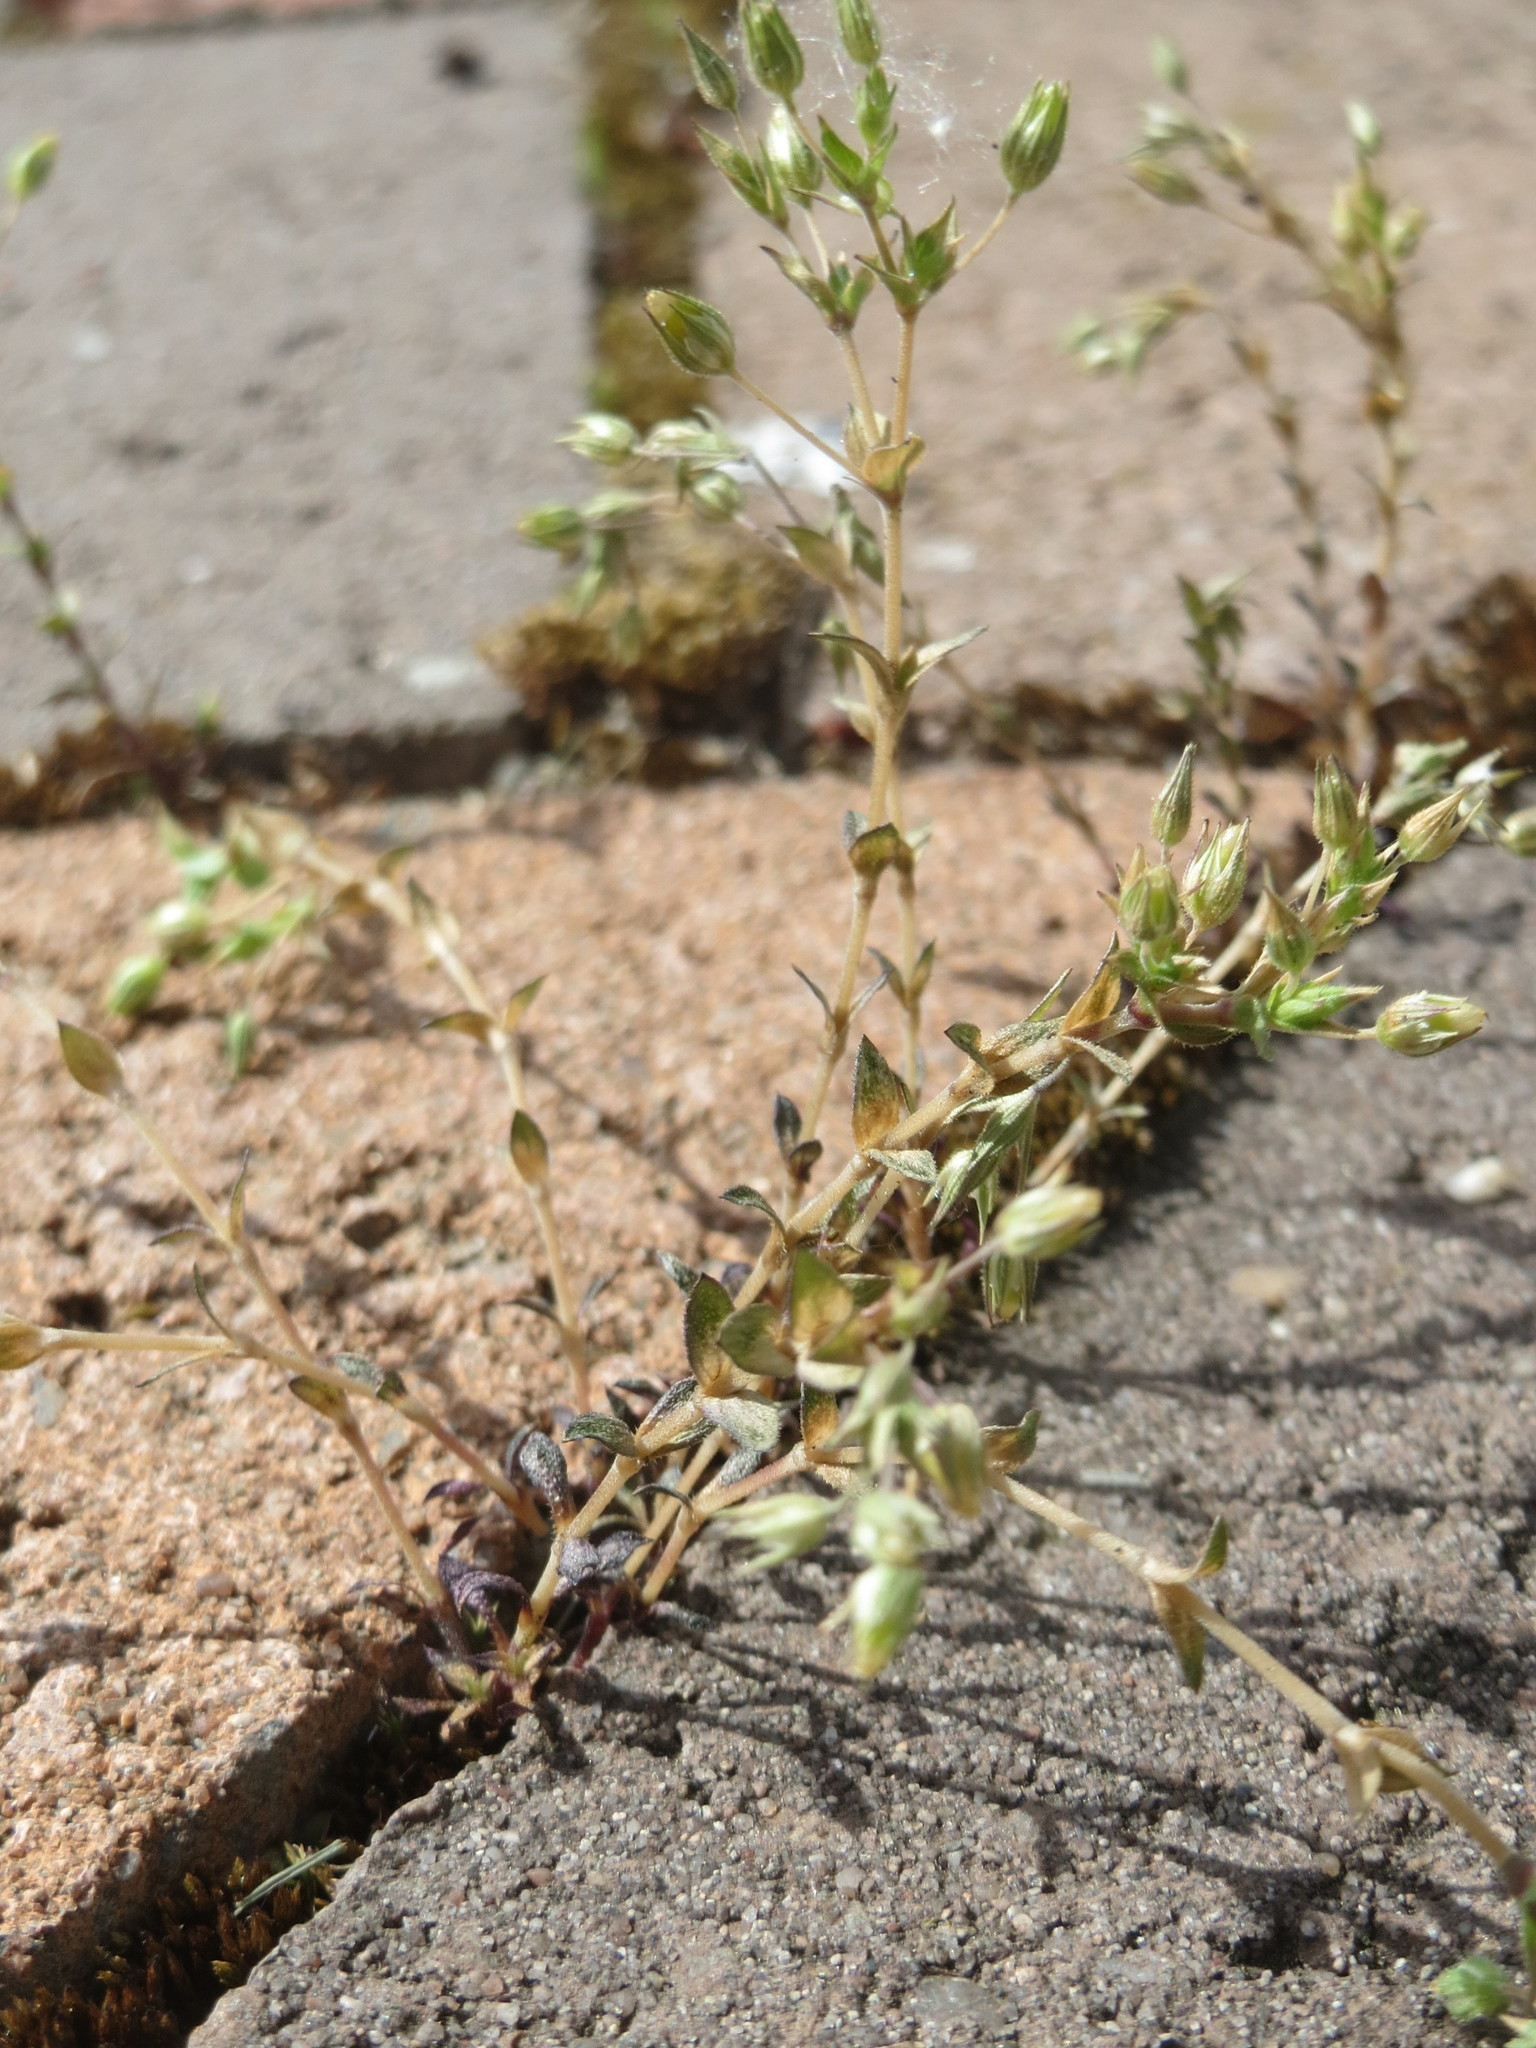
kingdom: Plantae
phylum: Tracheophyta
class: Magnoliopsida
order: Caryophyllales
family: Caryophyllaceae
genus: Arenaria
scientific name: Arenaria serpyllifolia
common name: Thyme-leaved sandwort
